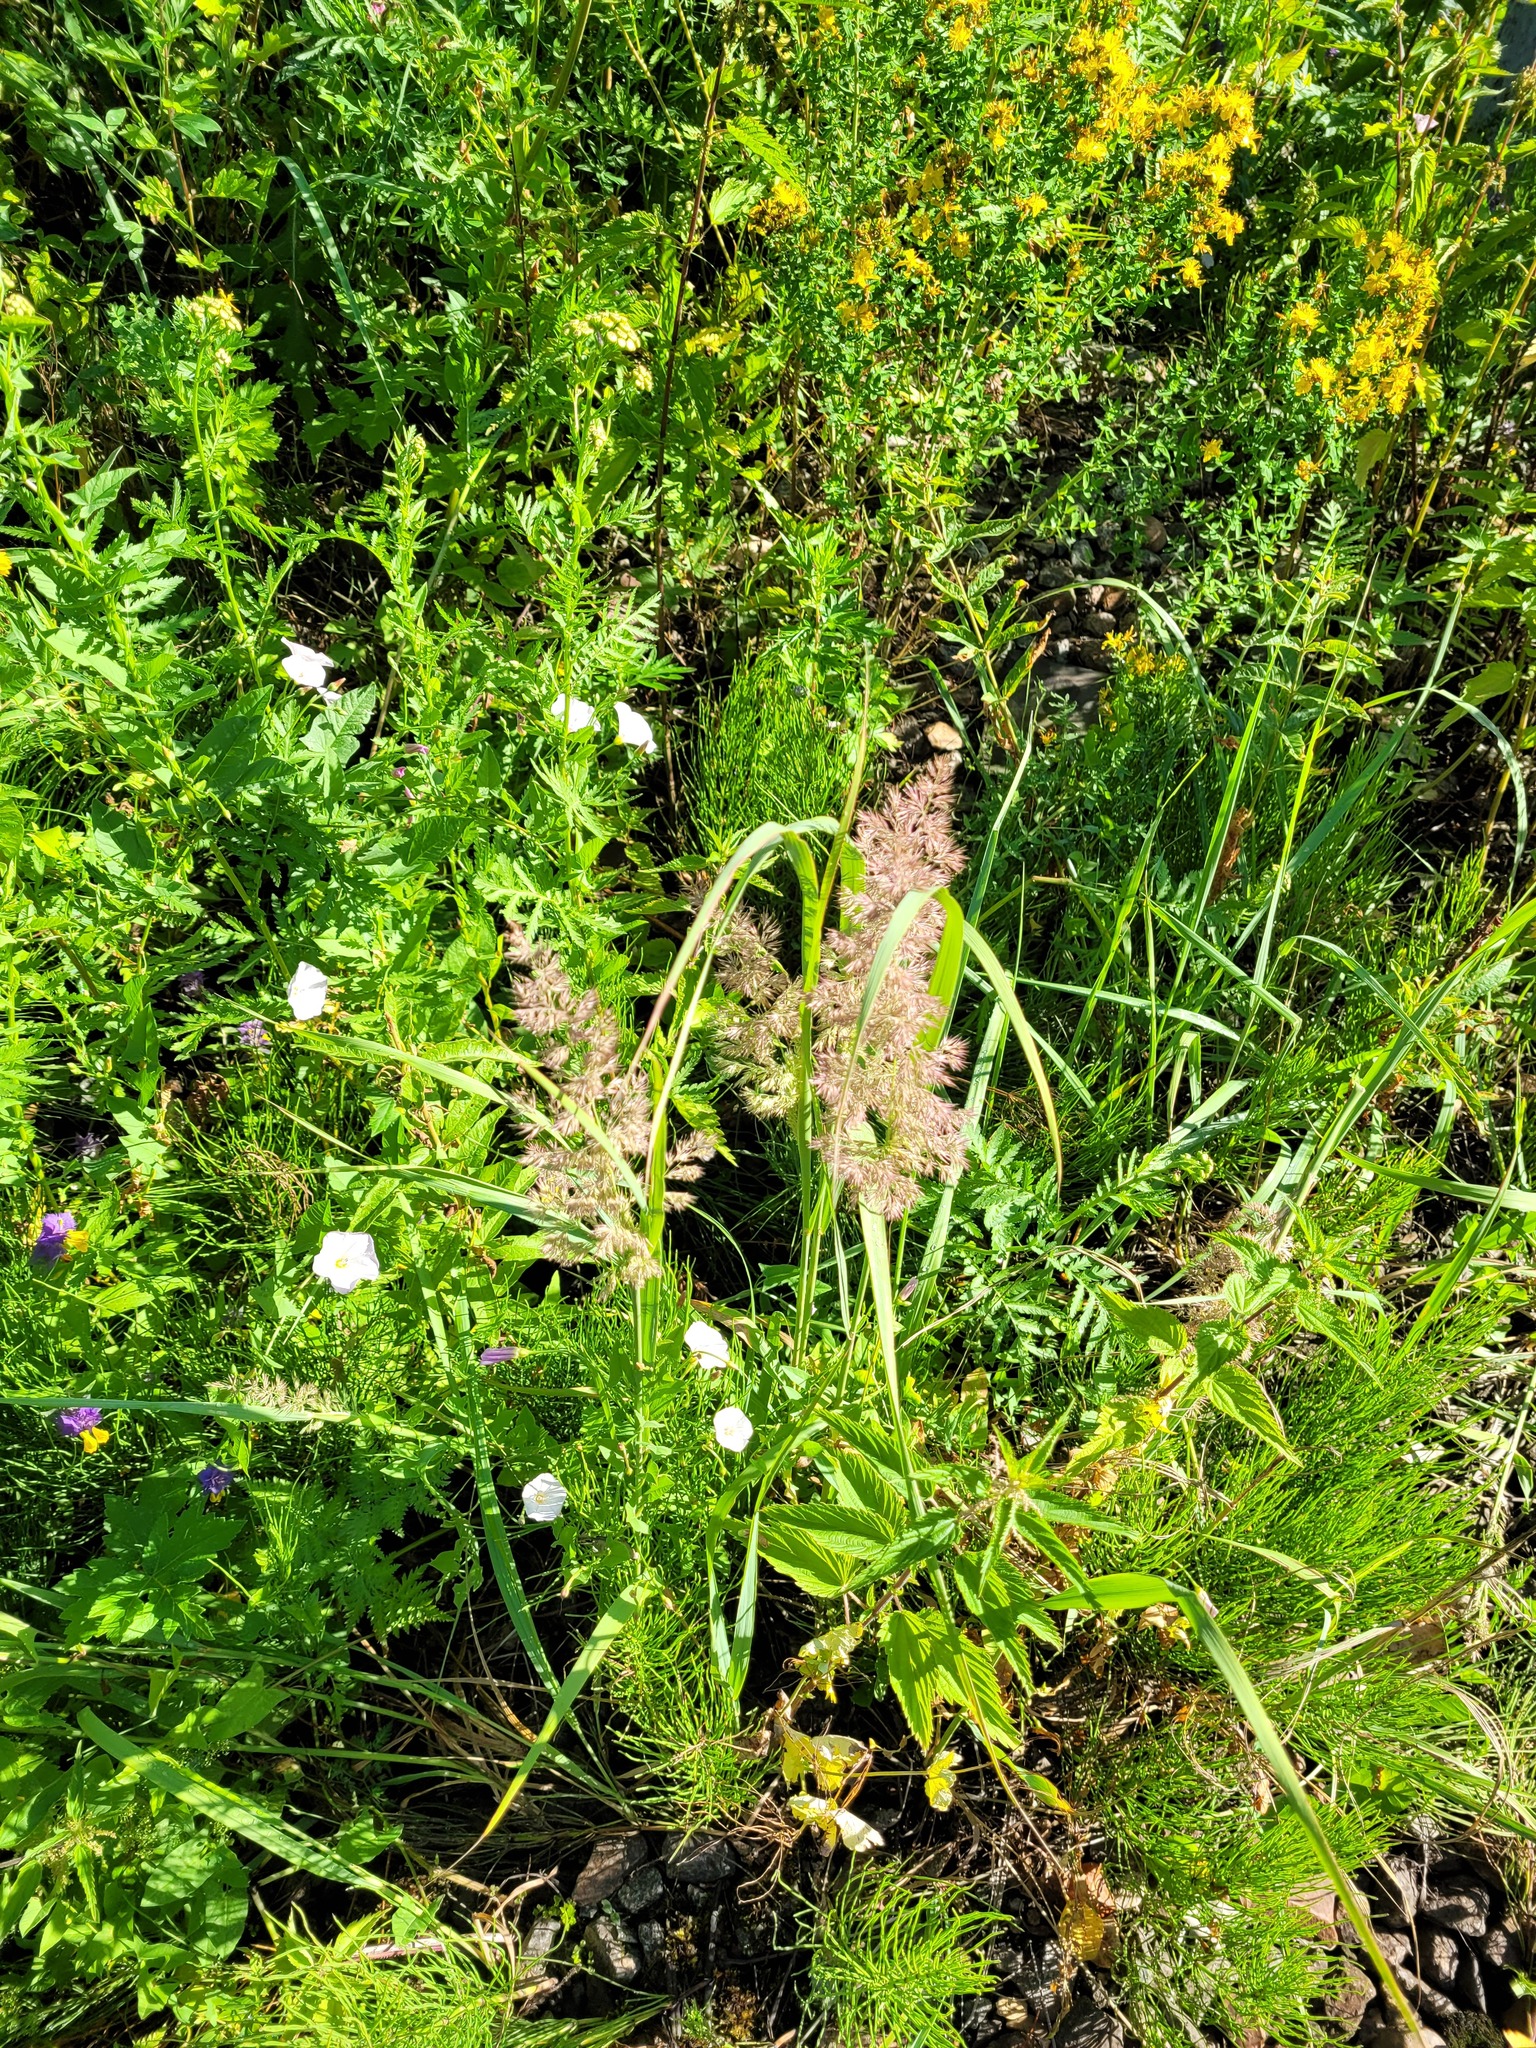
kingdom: Plantae
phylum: Tracheophyta
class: Liliopsida
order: Poales
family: Poaceae
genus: Calamagrostis
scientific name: Calamagrostis epigejos
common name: Wood small-reed
